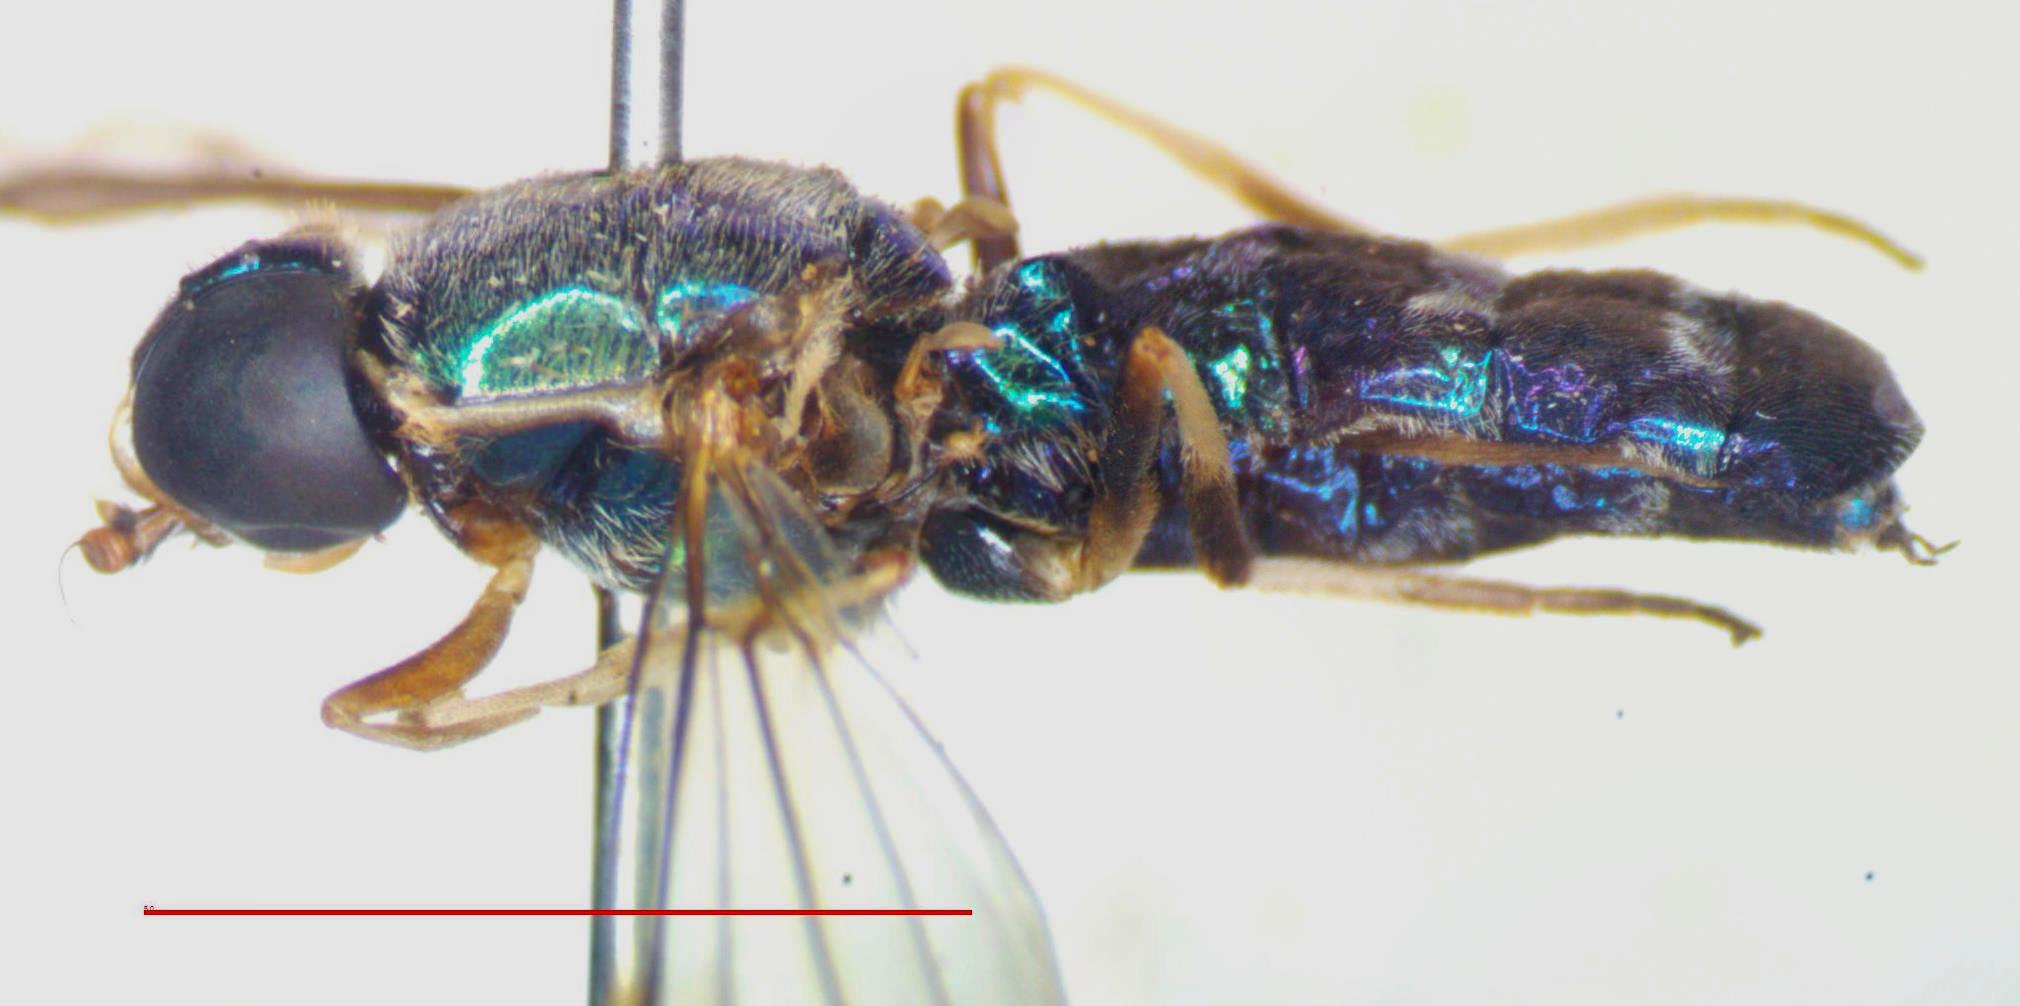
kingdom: Animalia
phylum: Arthropoda
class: Insecta
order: Diptera
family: Stratiomyidae
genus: Sargus
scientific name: Sargus speciosus
